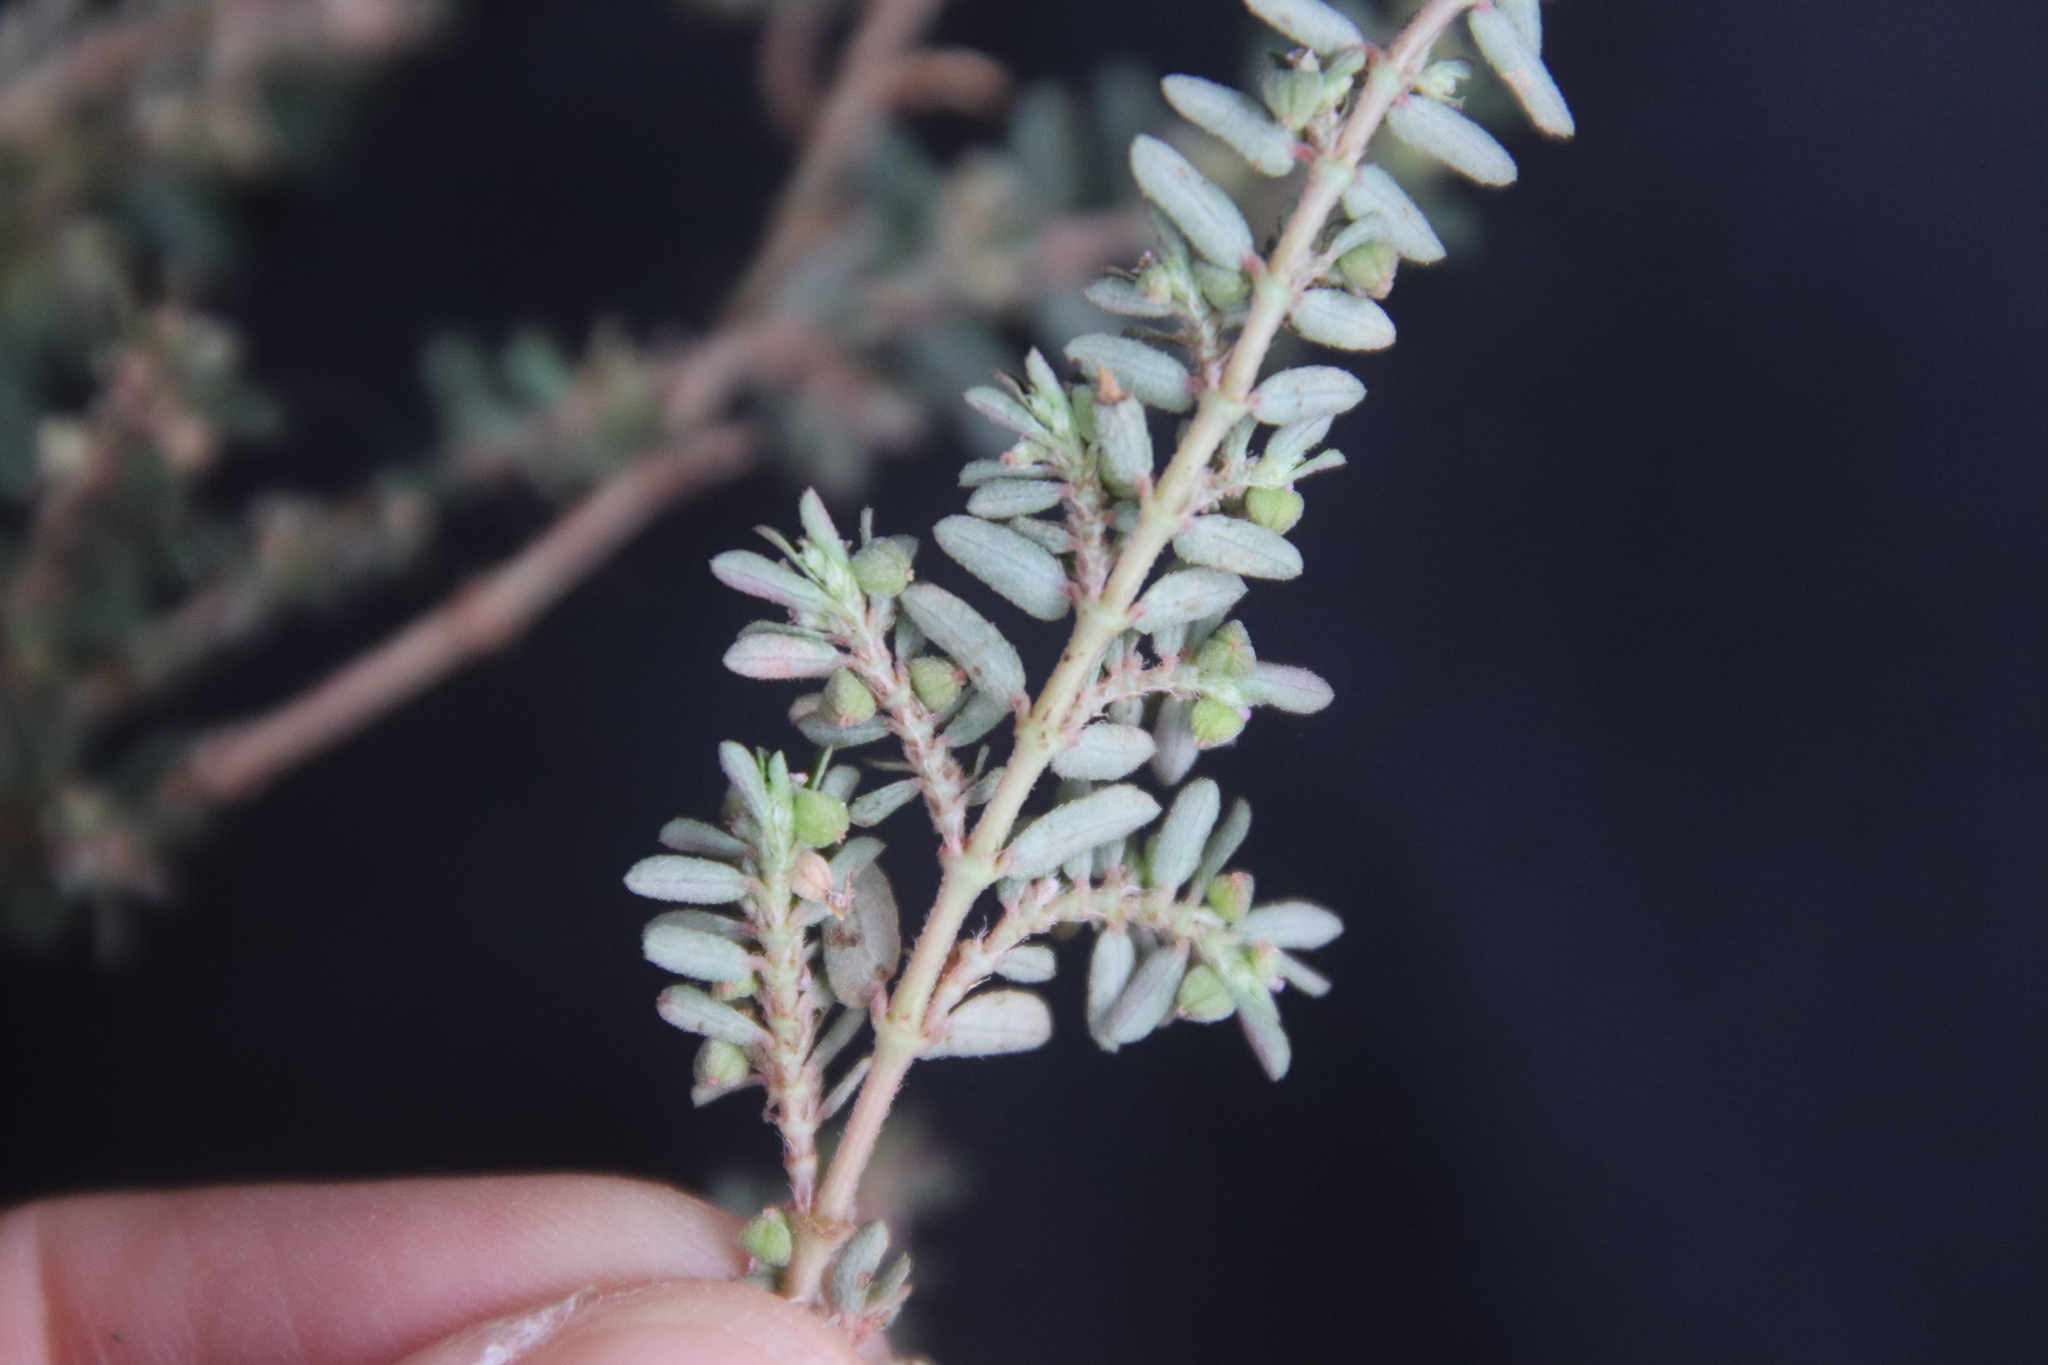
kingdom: Plantae
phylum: Tracheophyta
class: Magnoliopsida
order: Malpighiales
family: Euphorbiaceae
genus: Euphorbia
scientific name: Euphorbia maculata
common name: Spotted spurge
